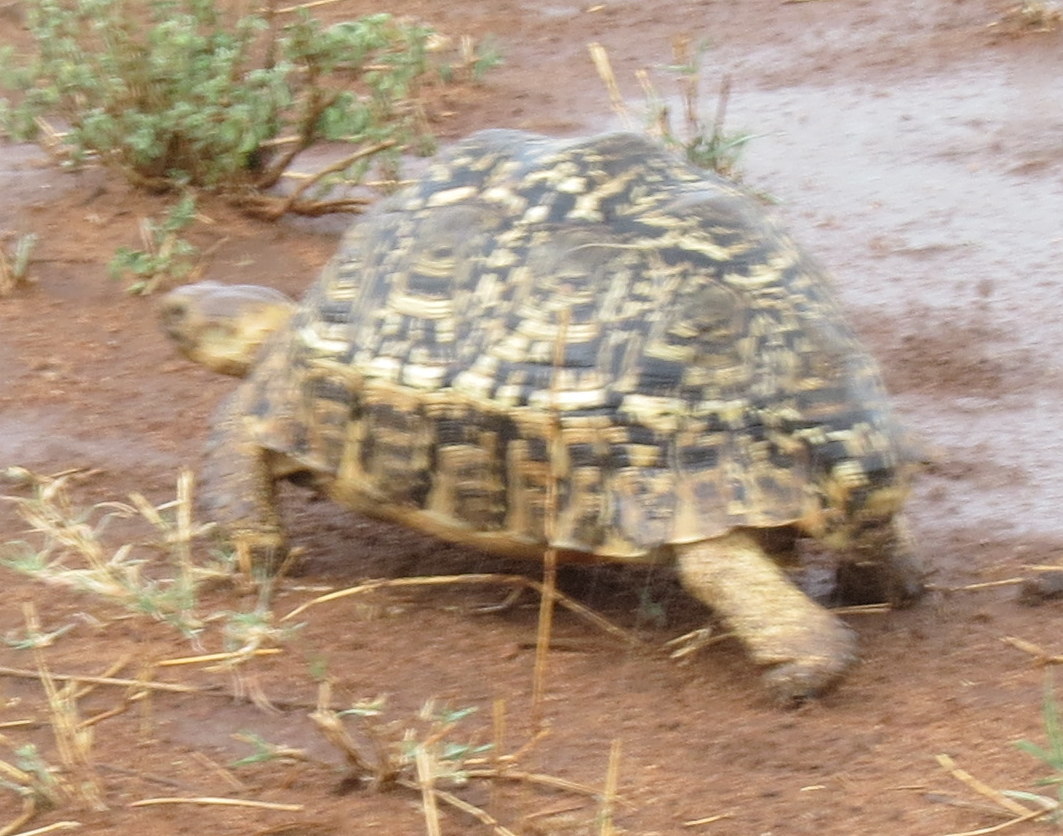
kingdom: Animalia
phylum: Chordata
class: Testudines
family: Testudinidae
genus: Stigmochelys
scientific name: Stigmochelys pardalis
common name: Leopard tortoise
